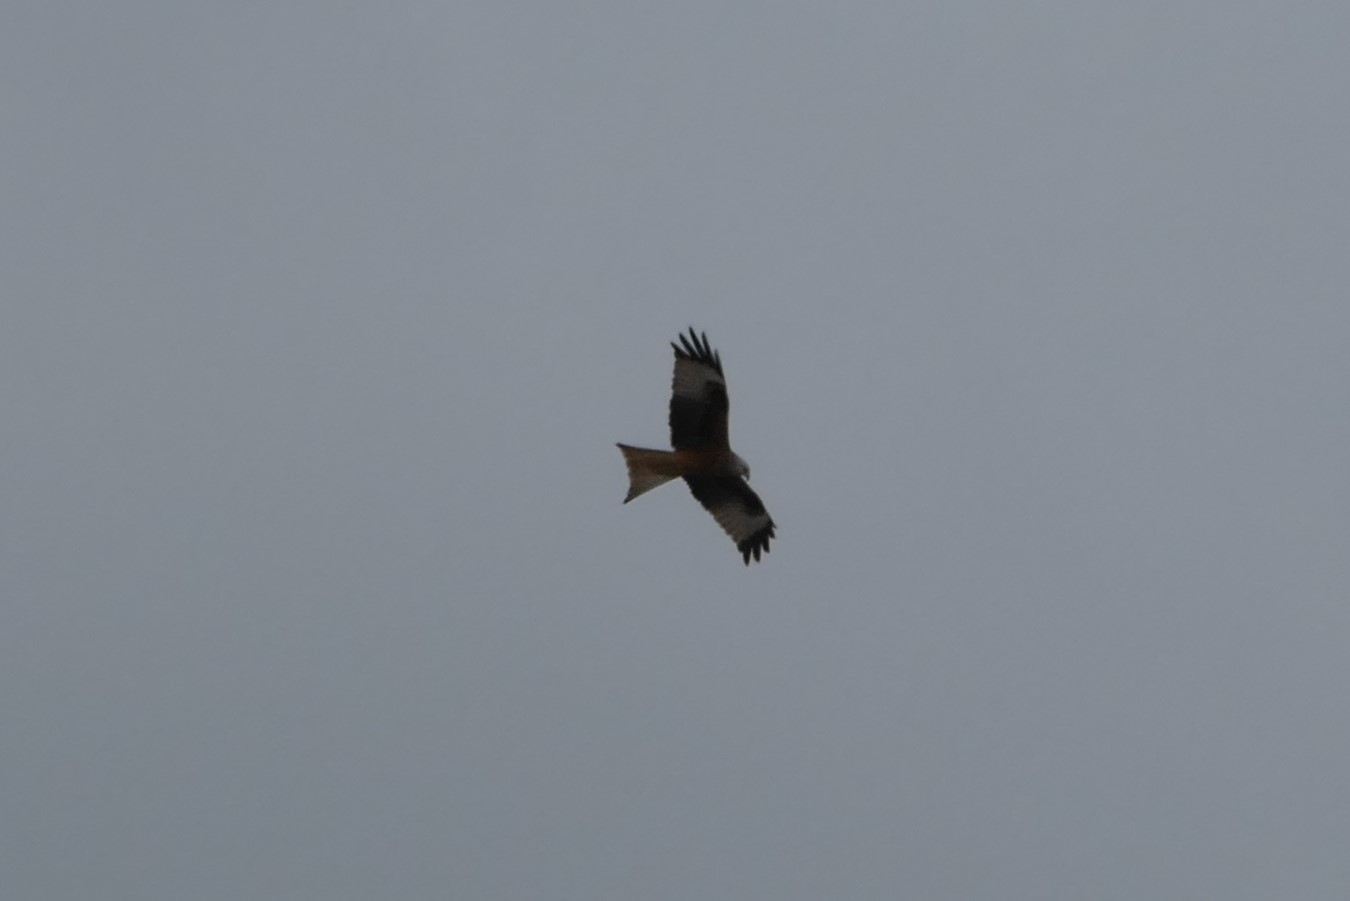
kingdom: Animalia
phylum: Chordata
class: Aves
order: Accipitriformes
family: Accipitridae
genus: Milvus
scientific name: Milvus milvus
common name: Red kite
